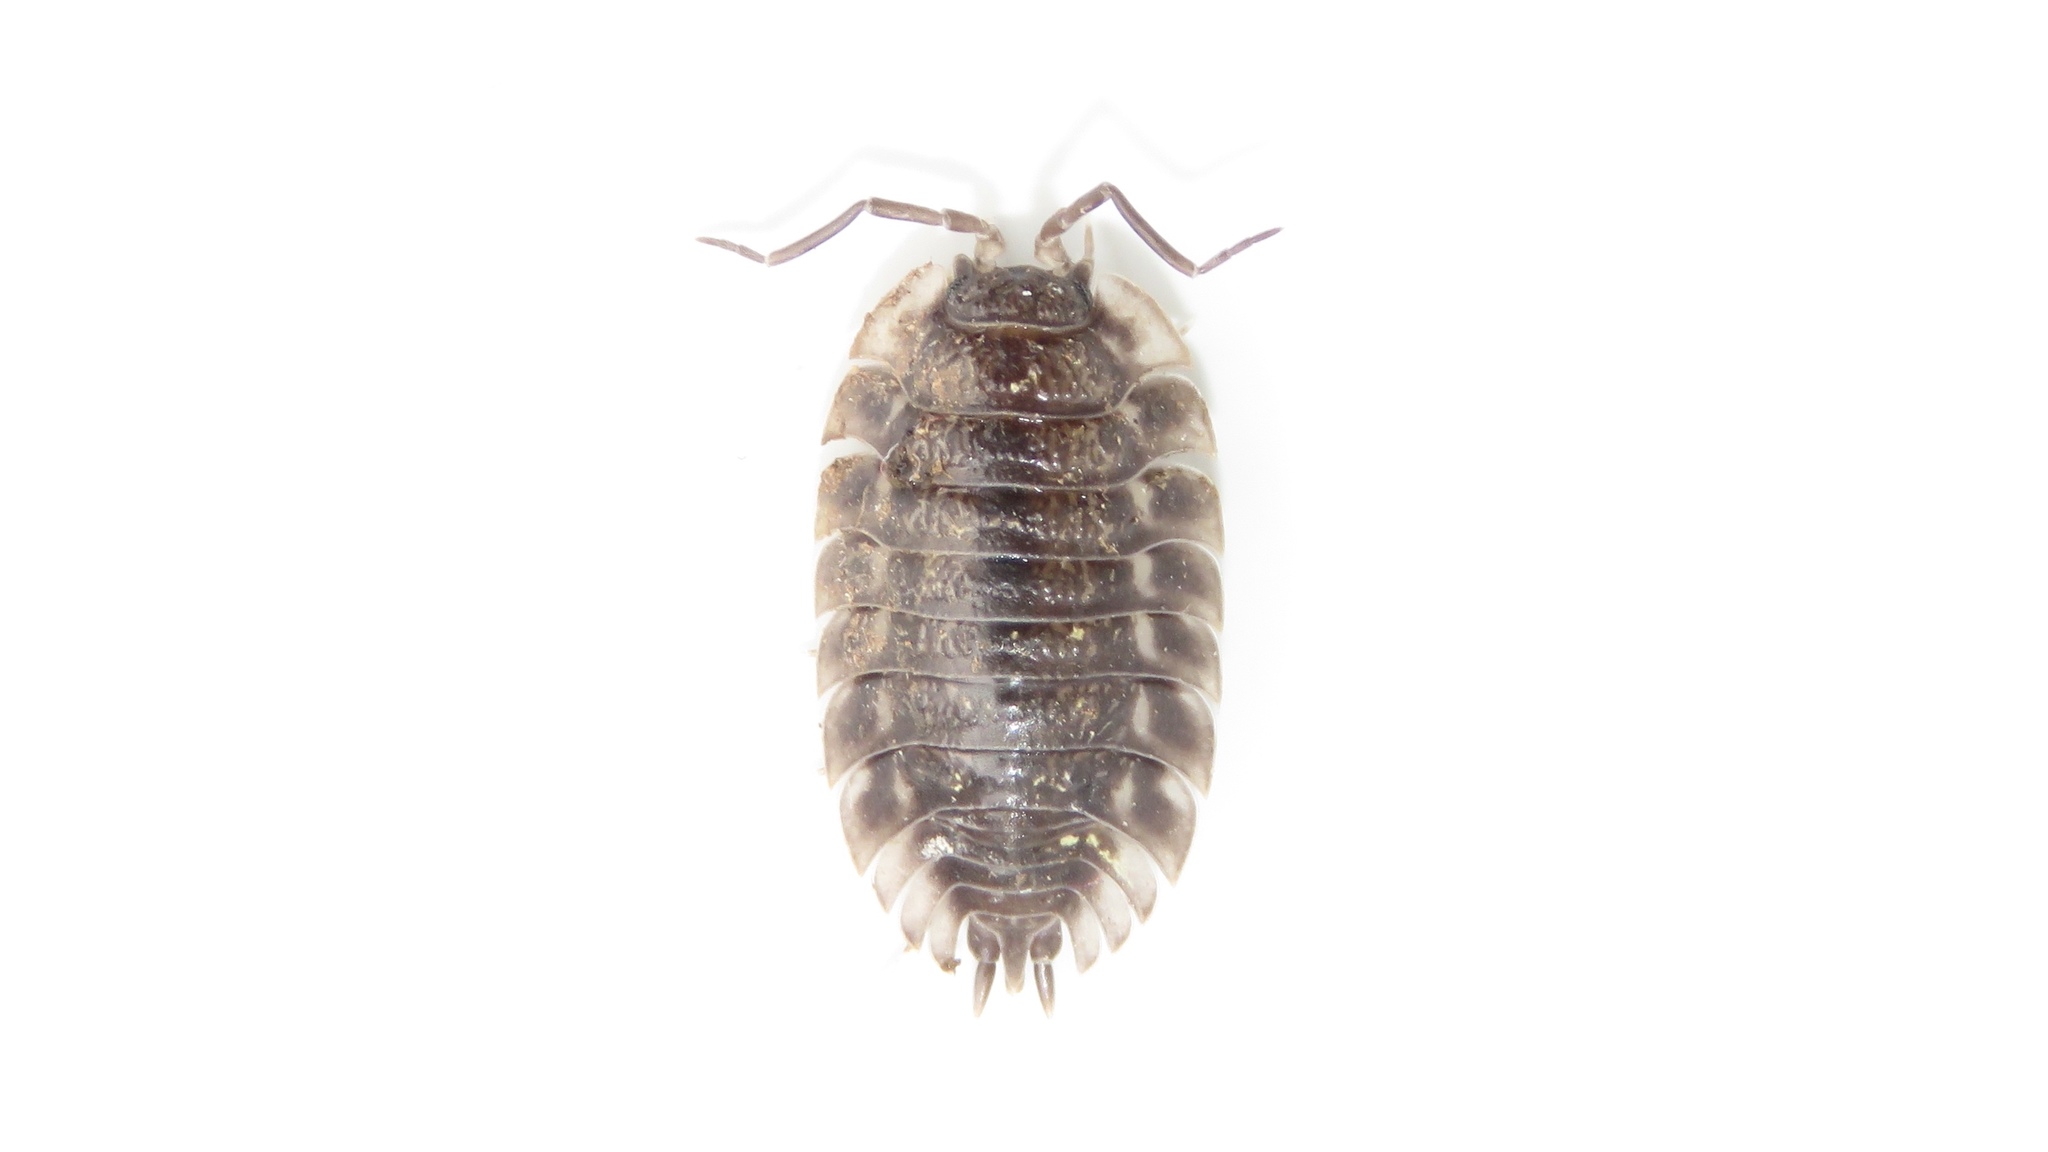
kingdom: Animalia
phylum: Arthropoda
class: Malacostraca
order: Isopoda
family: Oniscidae
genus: Oniscus
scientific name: Oniscus asellus
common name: Common shiny woodlouse
